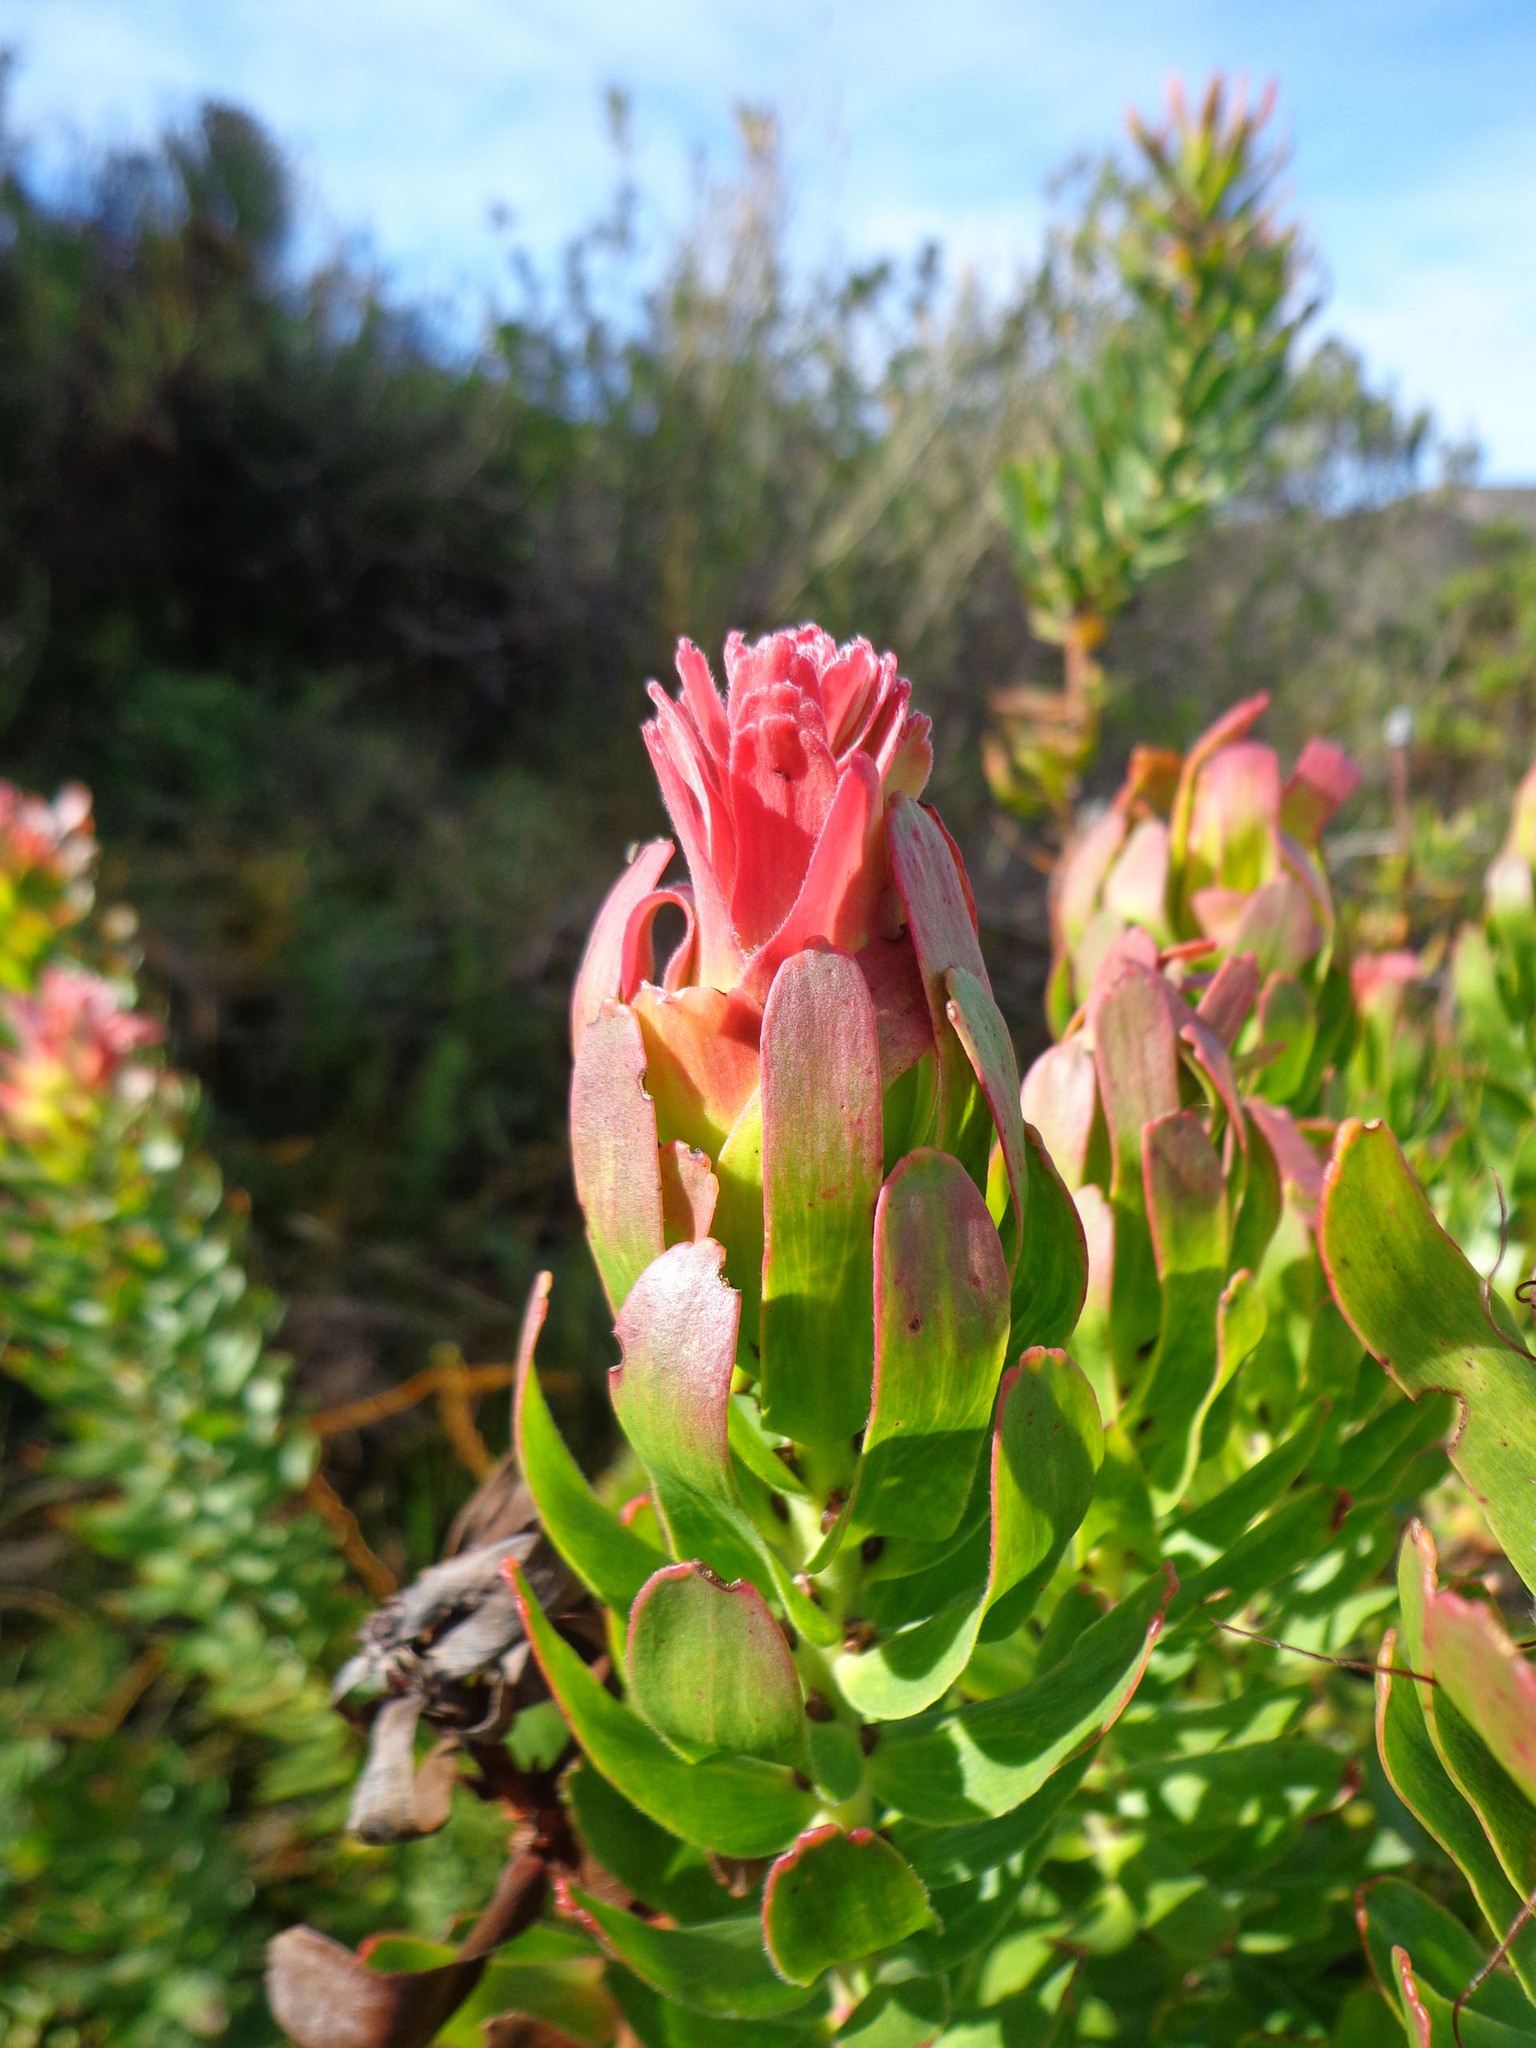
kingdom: Plantae
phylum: Tracheophyta
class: Magnoliopsida
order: Proteales
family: Proteaceae
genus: Mimetes
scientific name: Mimetes cucullatus
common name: Common pagoda
